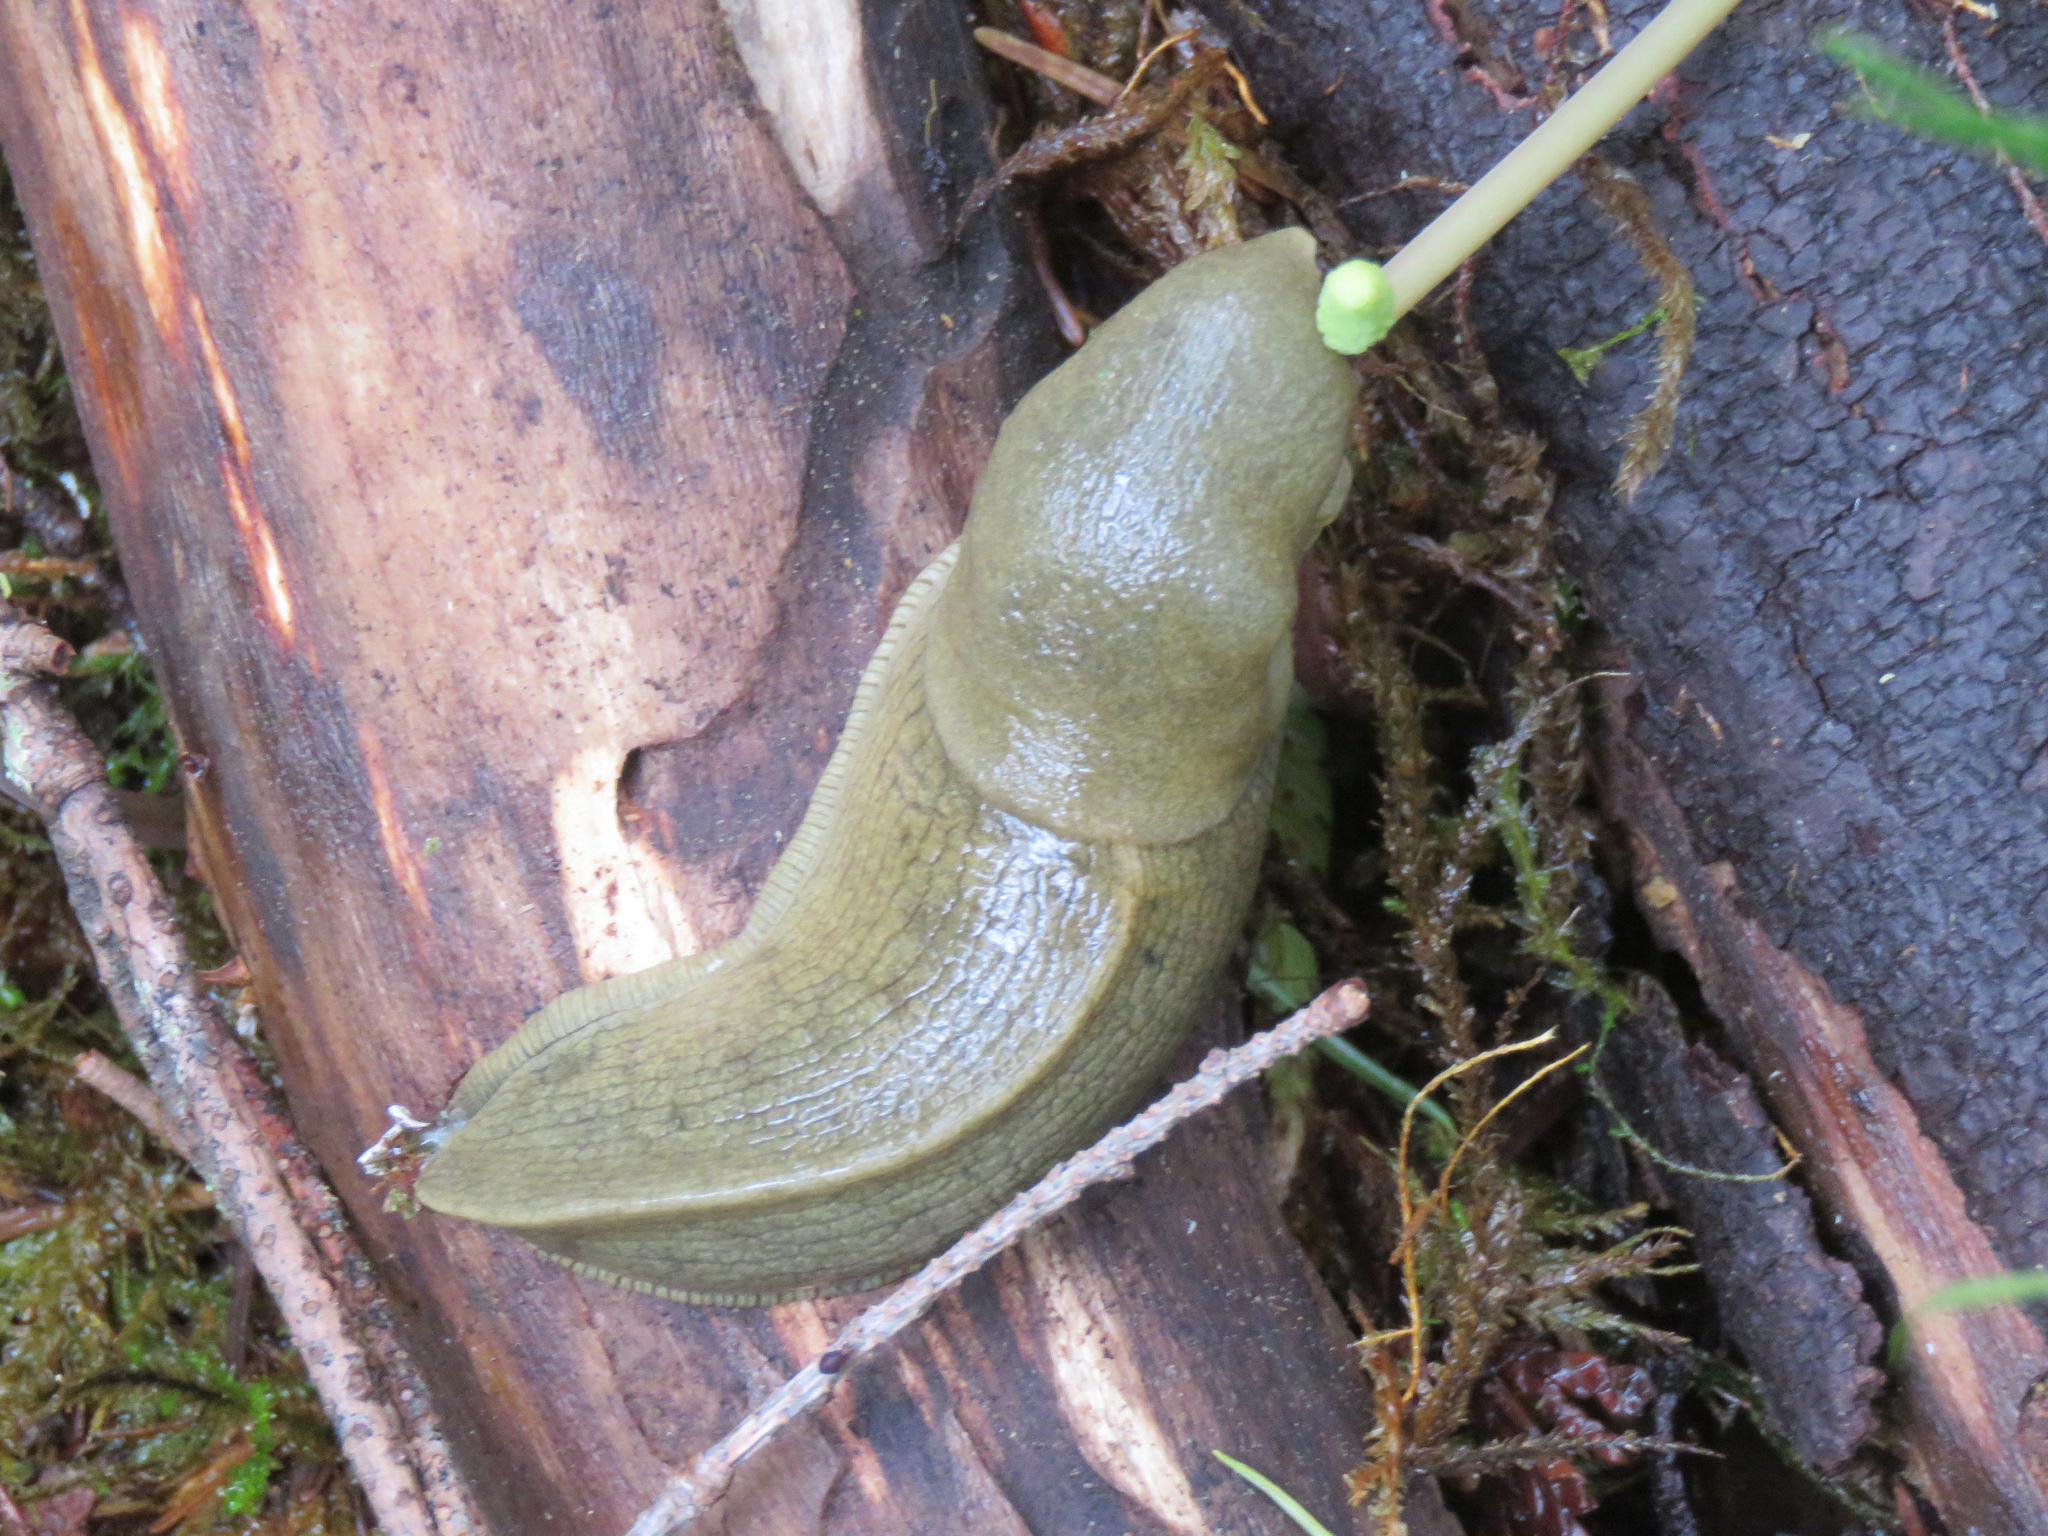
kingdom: Animalia
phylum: Mollusca
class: Gastropoda
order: Stylommatophora
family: Ariolimacidae
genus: Ariolimax
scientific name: Ariolimax columbianus
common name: Pacific banana slug
